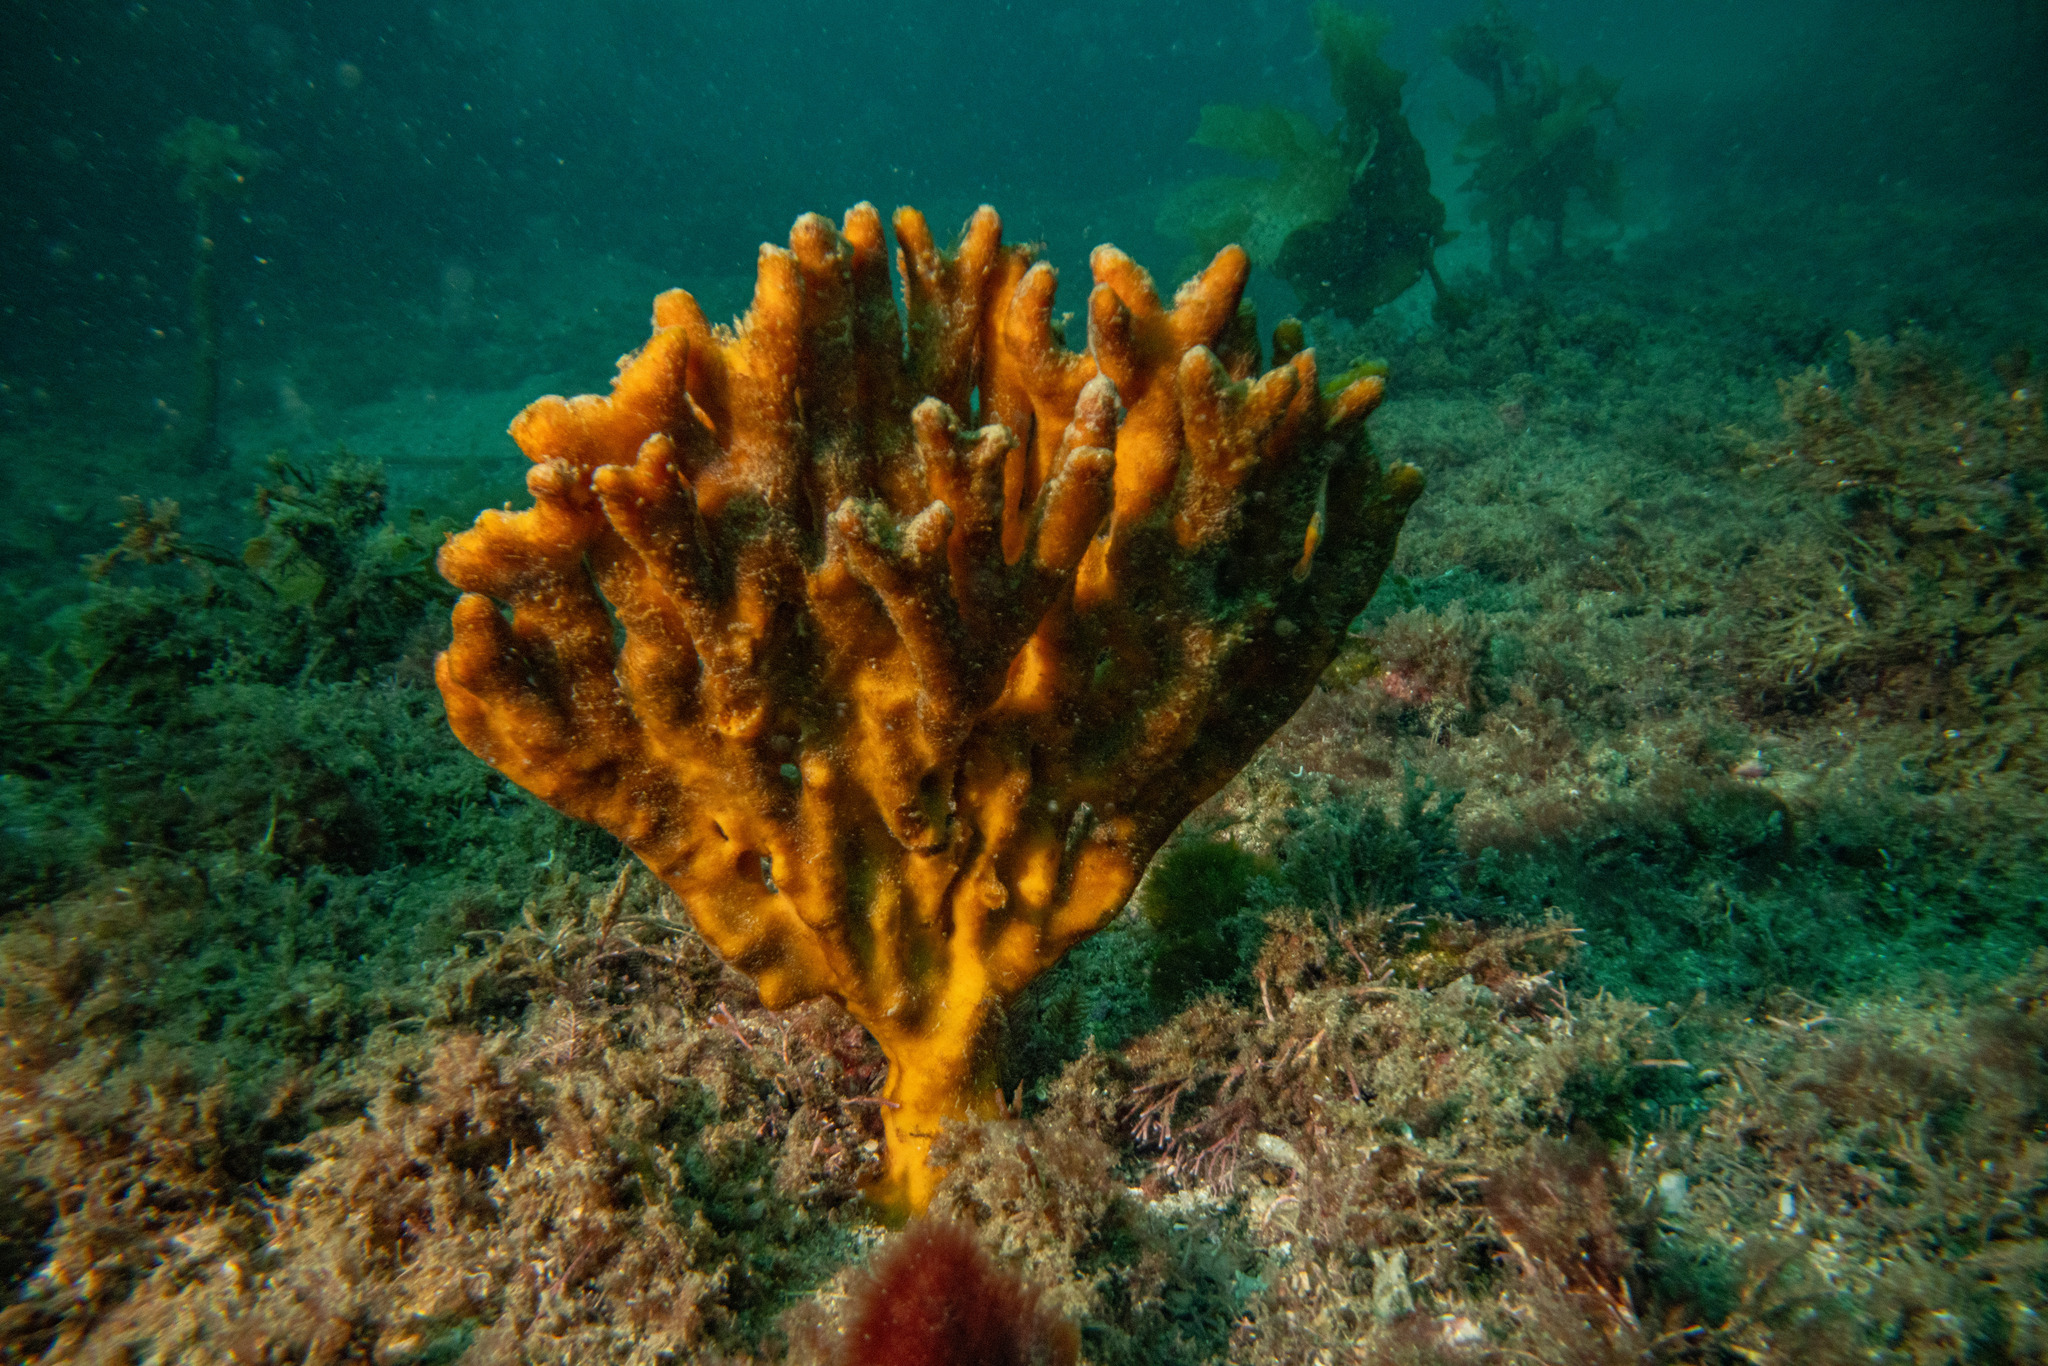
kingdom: Animalia
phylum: Porifera
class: Demospongiae
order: Axinellida
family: Raspailiidae
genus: Raspailia
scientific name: Raspailia topsenti
